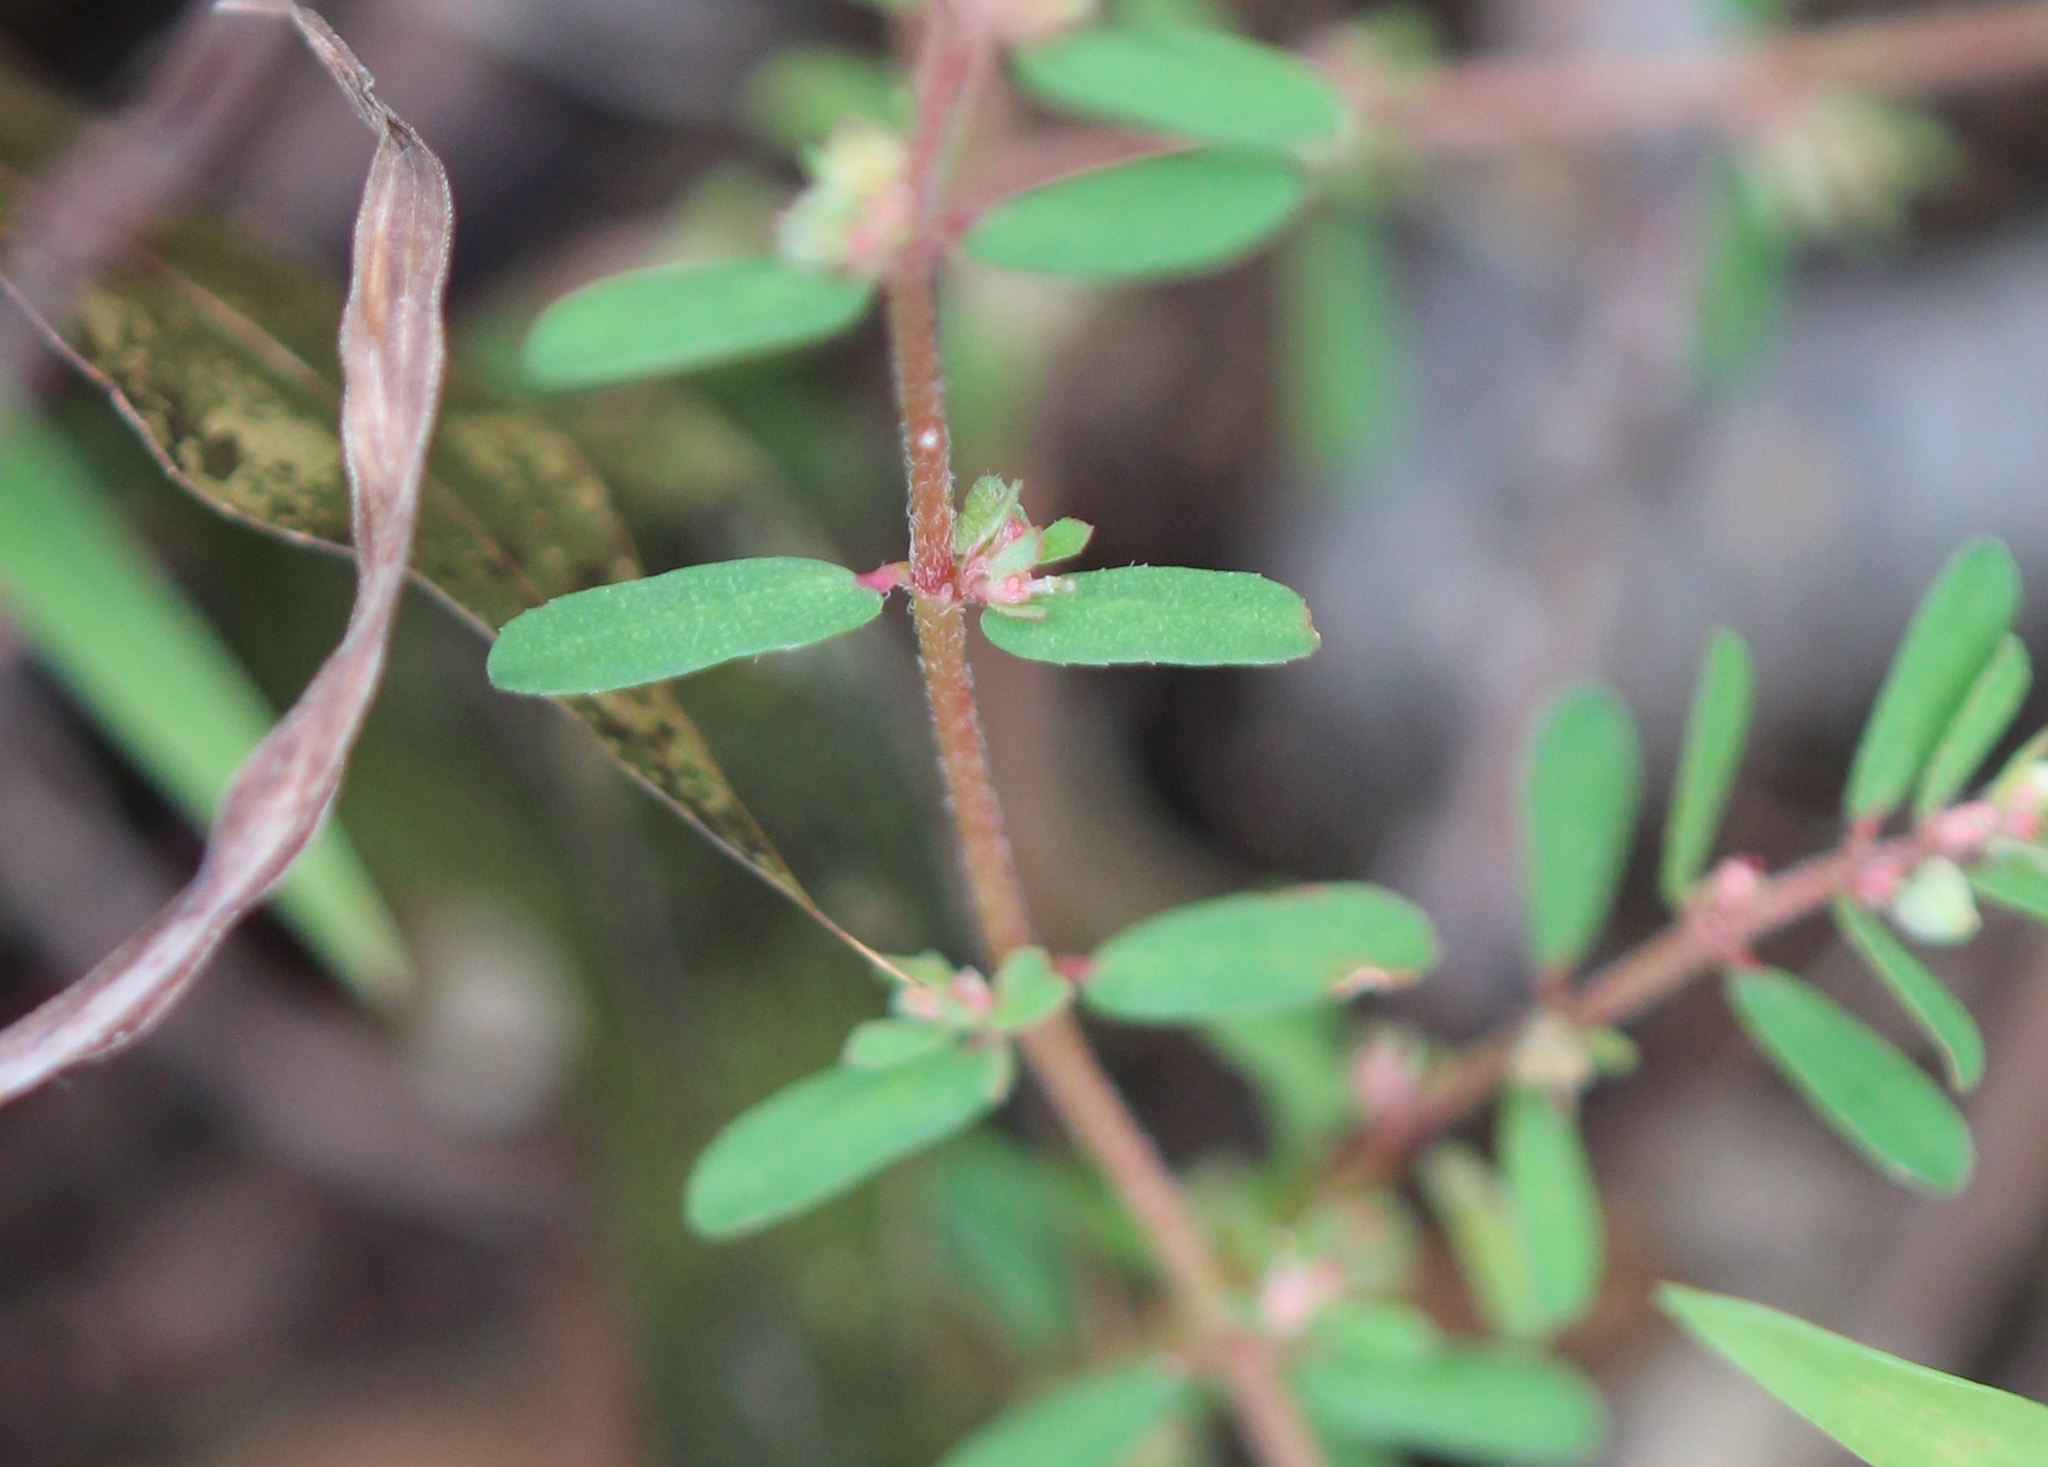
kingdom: Plantae
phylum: Tracheophyta
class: Magnoliopsida
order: Malpighiales
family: Euphorbiaceae
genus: Euphorbia
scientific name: Euphorbia maculata
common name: Spotted spurge
